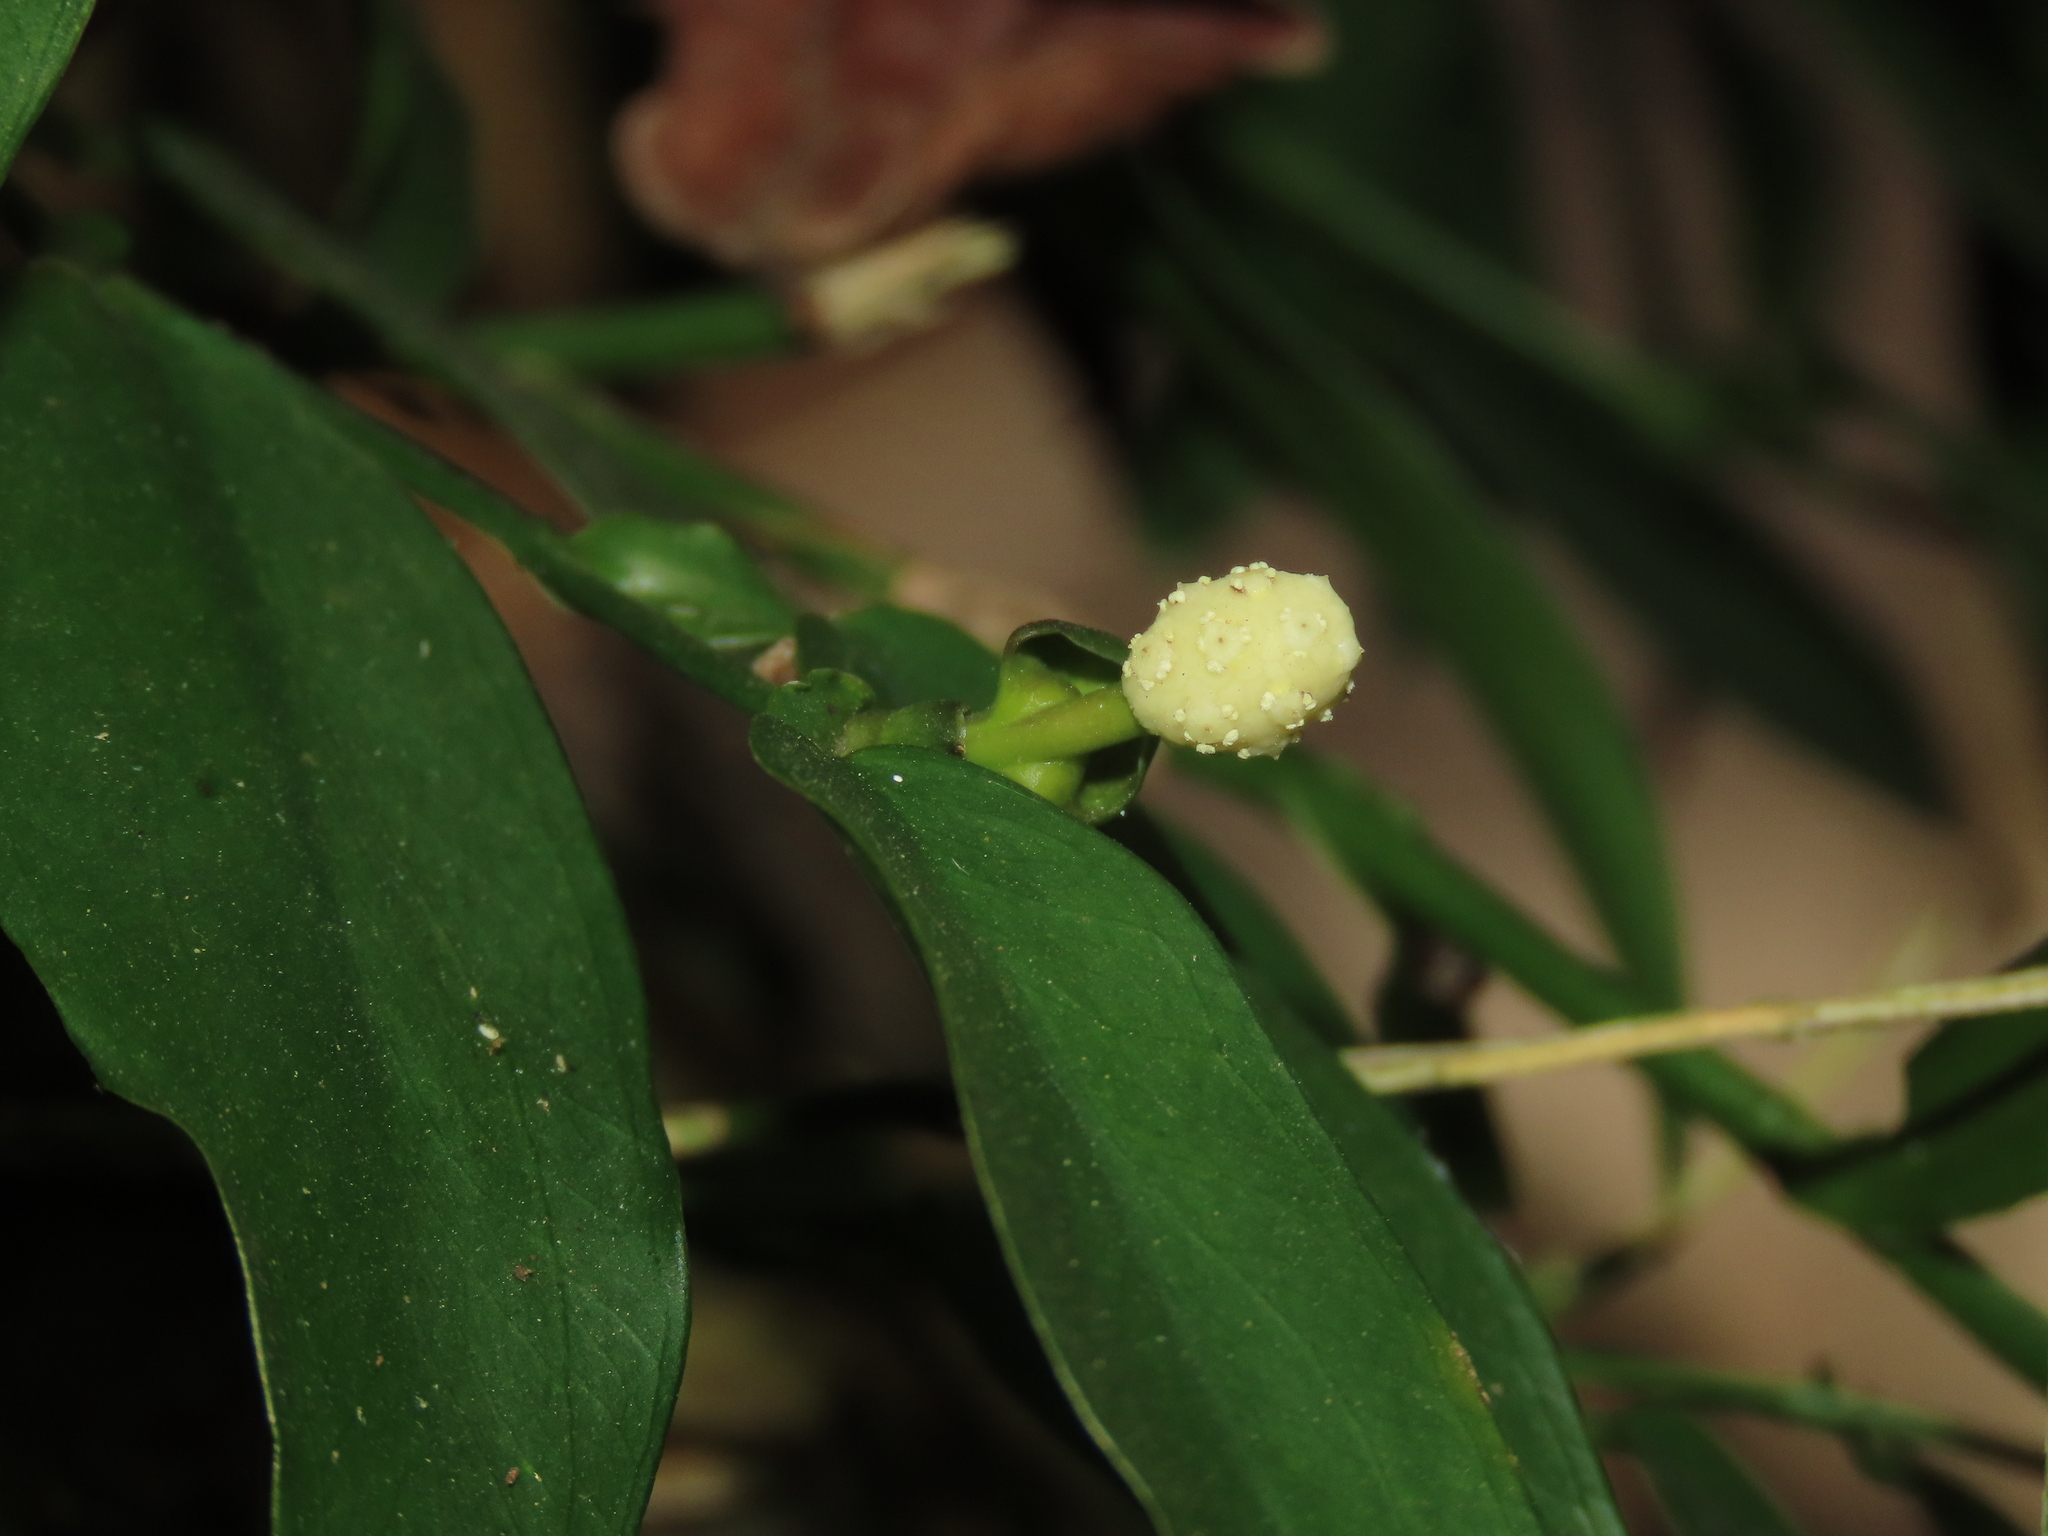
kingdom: Plantae
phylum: Tracheophyta
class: Liliopsida
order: Alismatales
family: Araceae
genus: Pothos
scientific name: Pothos chinensis
